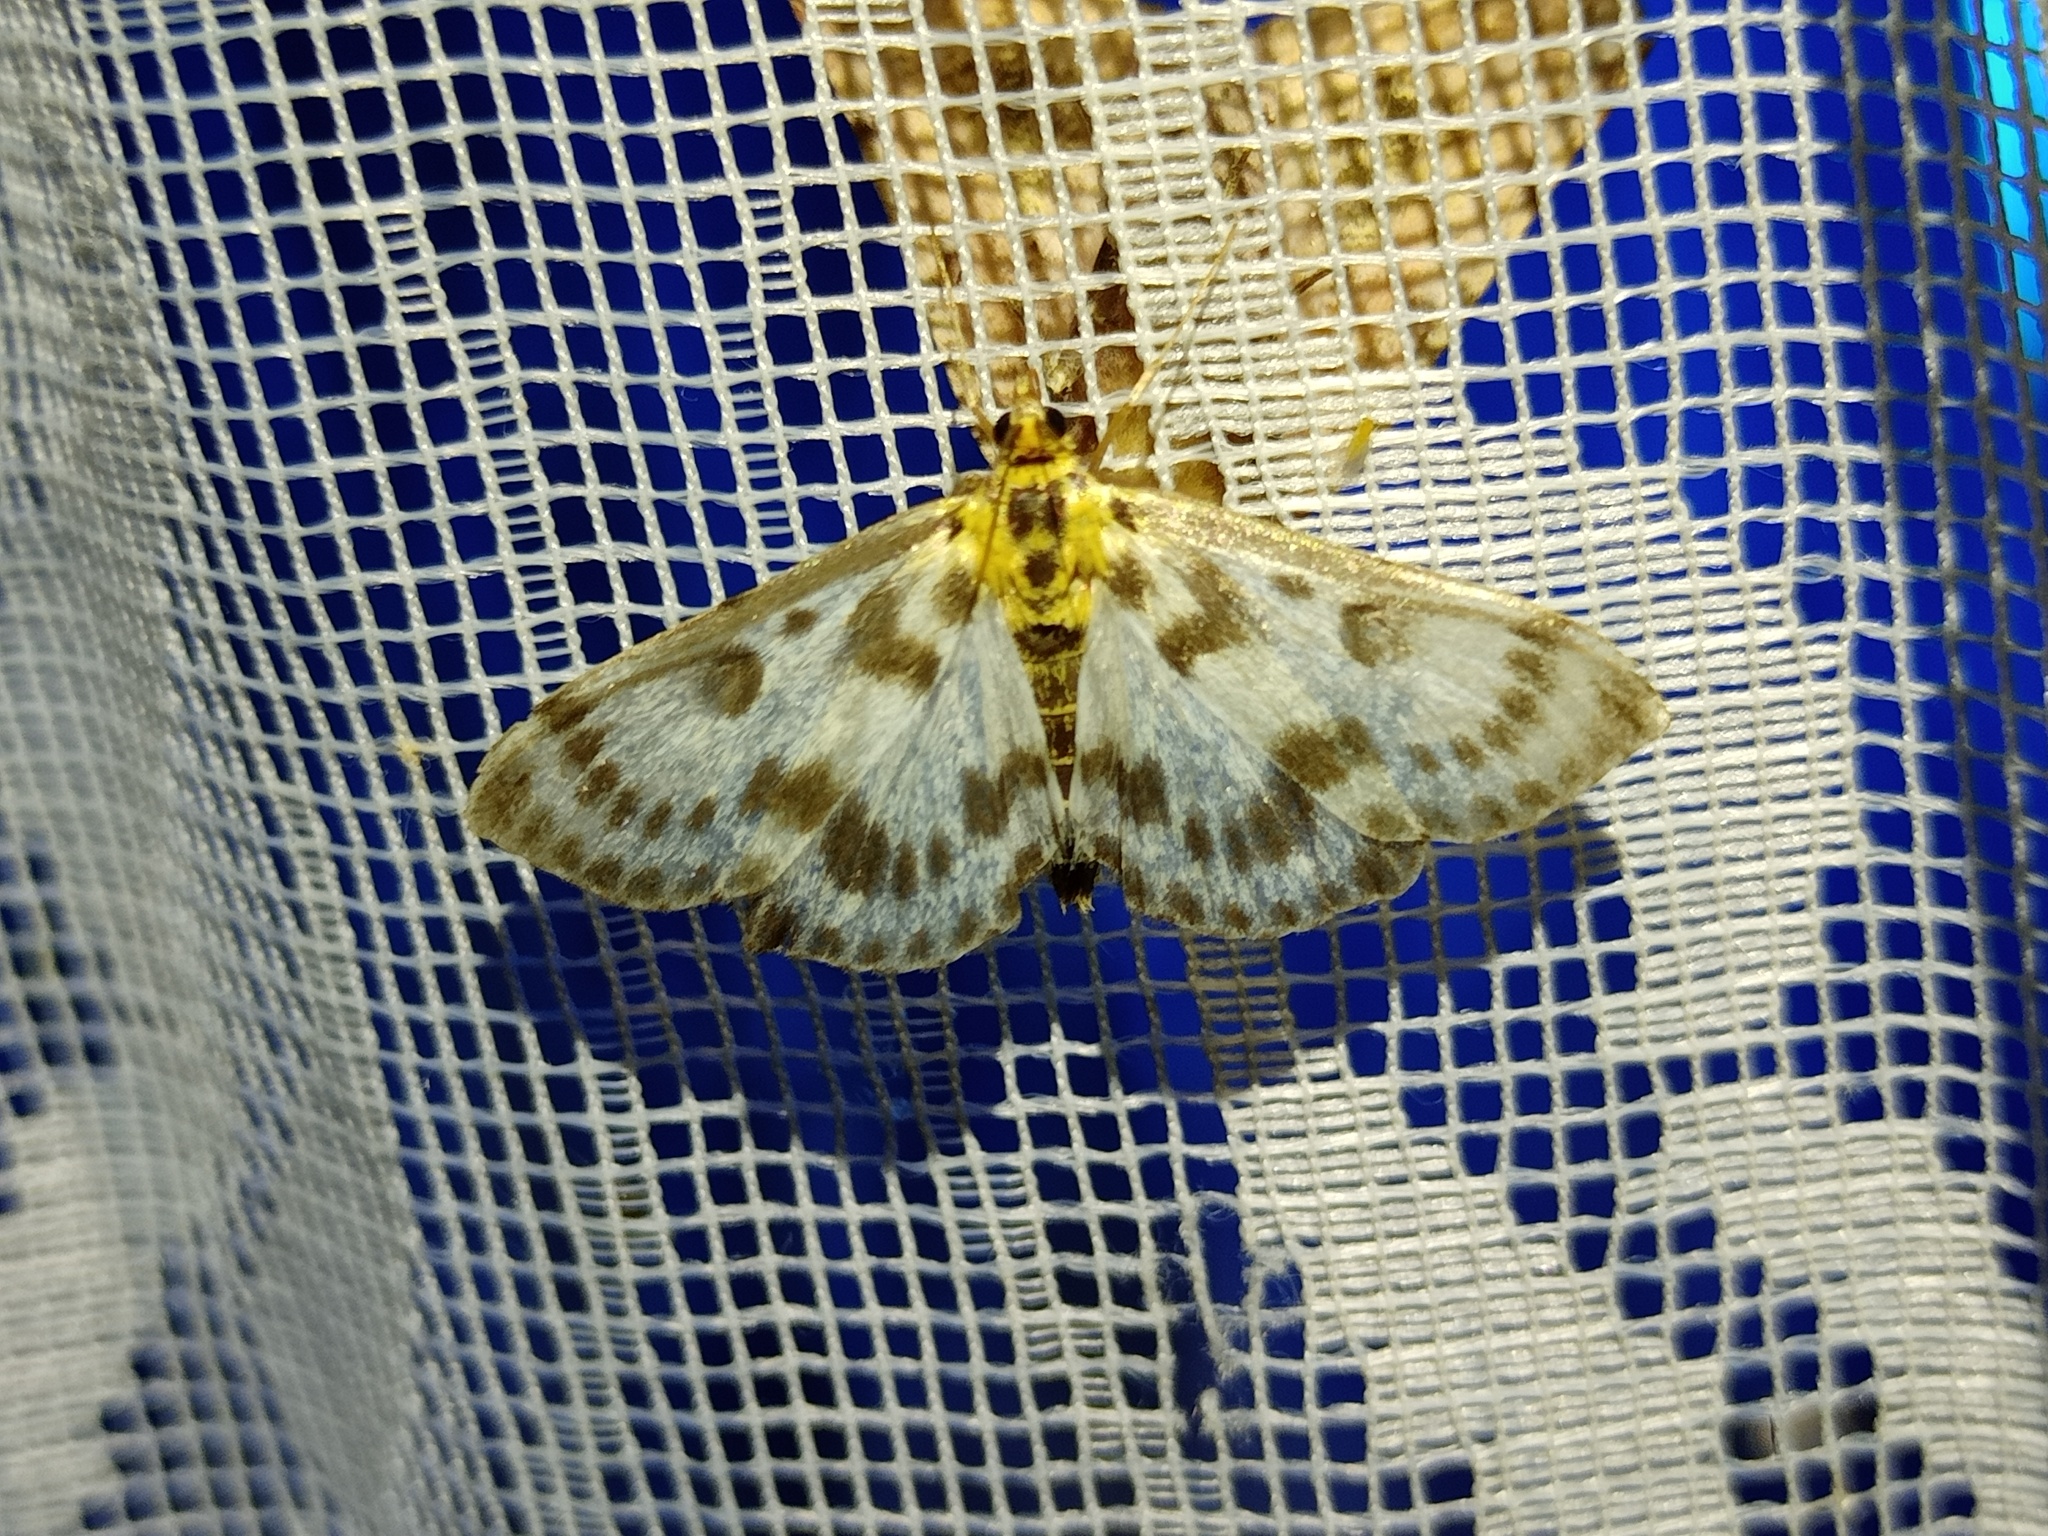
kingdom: Animalia
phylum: Arthropoda
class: Insecta
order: Lepidoptera
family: Crambidae
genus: Anania
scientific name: Anania hortulata
